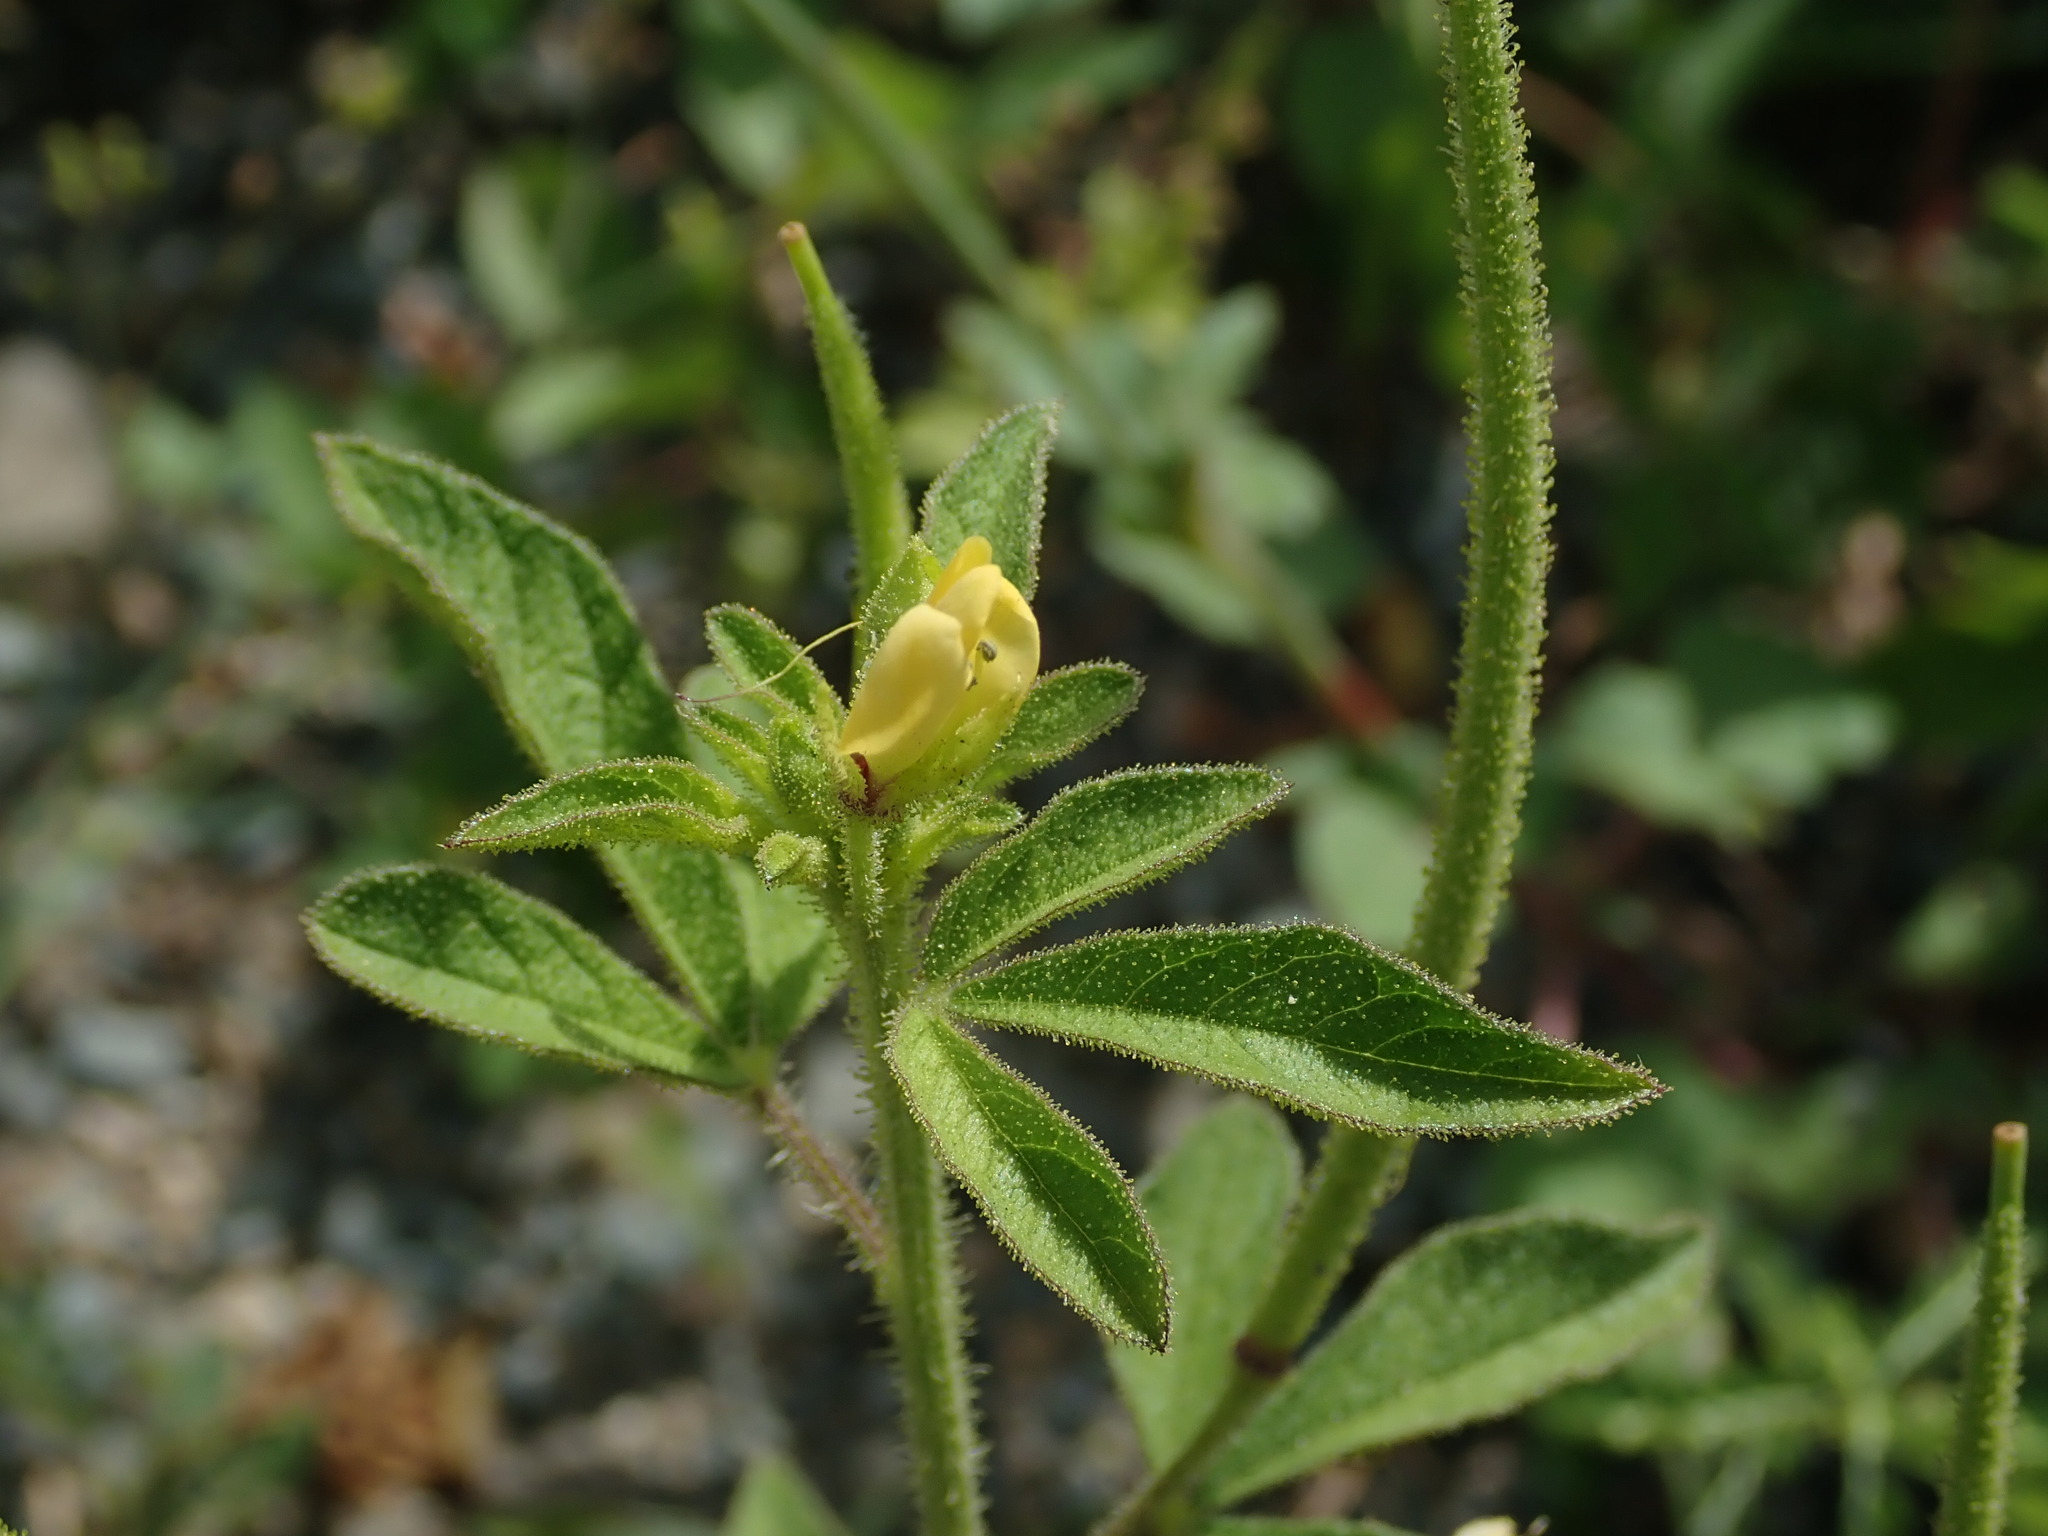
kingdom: Plantae
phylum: Tracheophyta
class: Magnoliopsida
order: Brassicales
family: Cleomaceae
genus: Arivela
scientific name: Arivela viscosa
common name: Asian spiderflower
